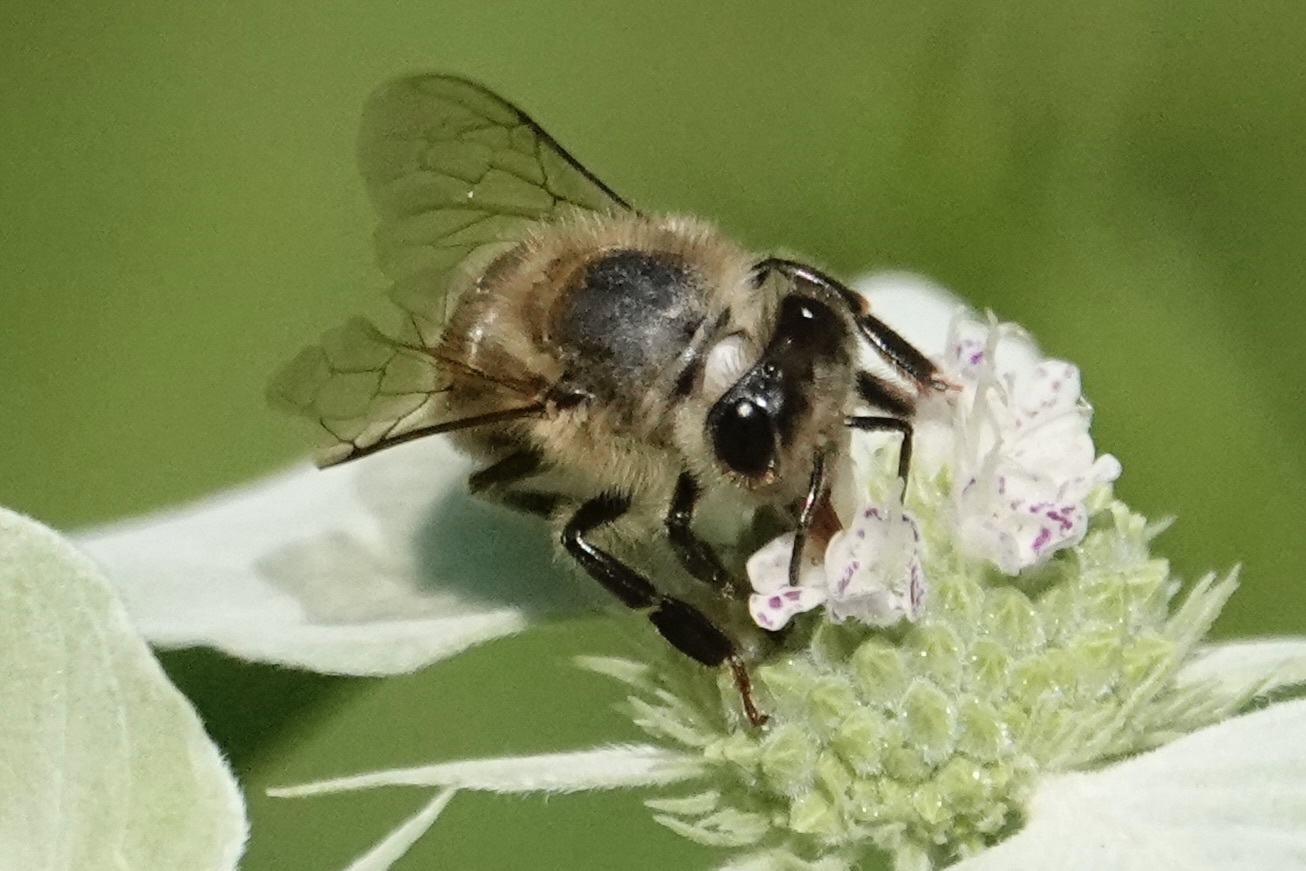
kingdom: Animalia
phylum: Arthropoda
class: Insecta
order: Hymenoptera
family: Apidae
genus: Apis
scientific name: Apis mellifera
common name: Honey bee
